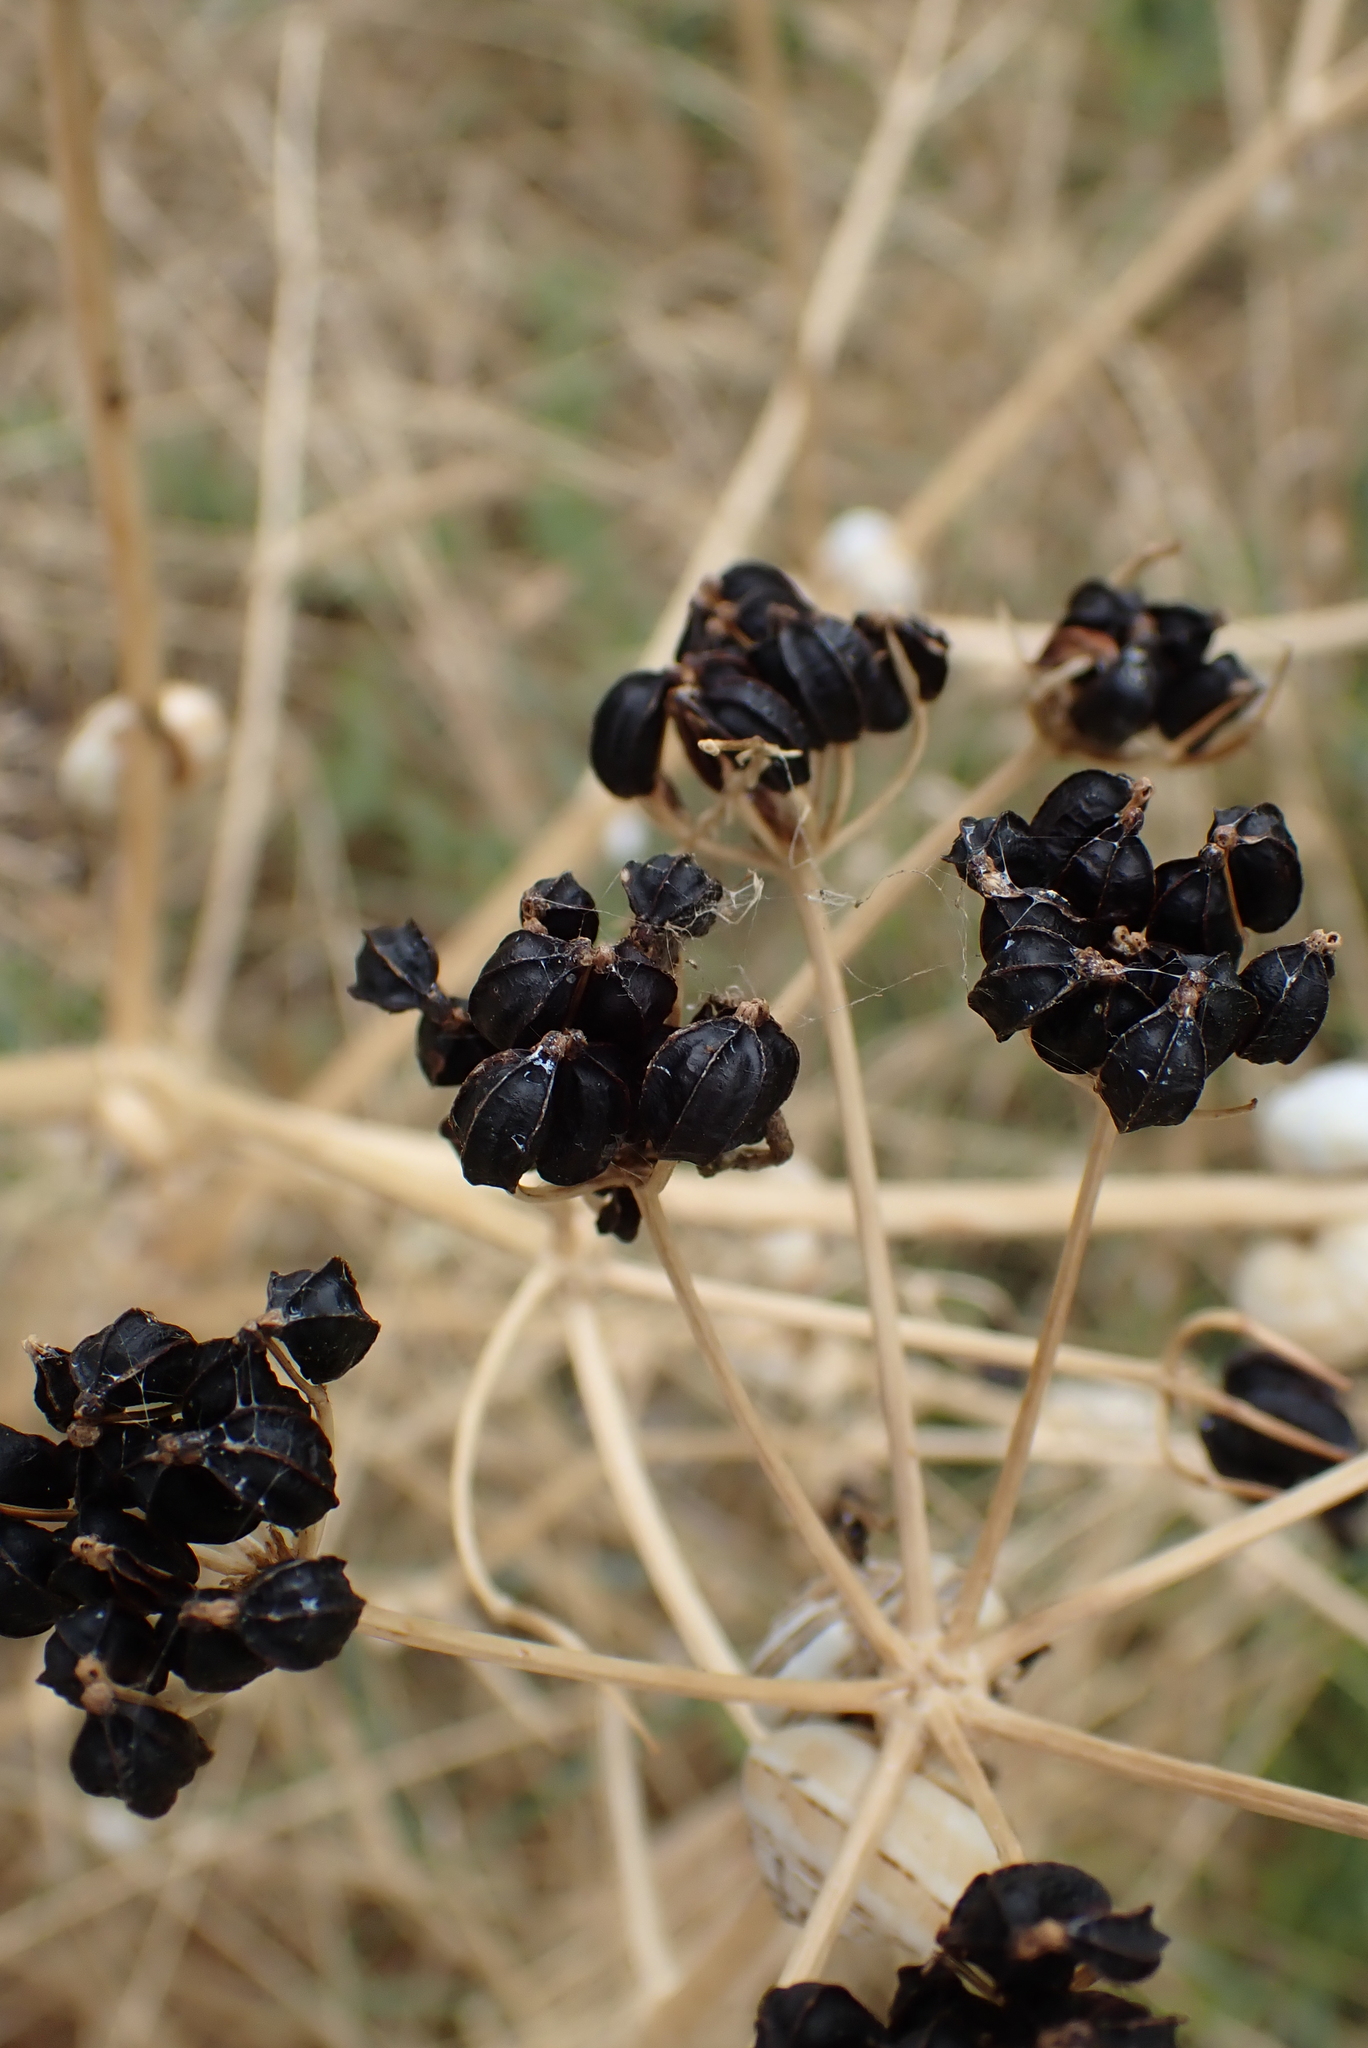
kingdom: Plantae
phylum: Tracheophyta
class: Magnoliopsida
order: Apiales
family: Apiaceae
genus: Smyrnium
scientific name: Smyrnium olusatrum
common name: Alexanders
